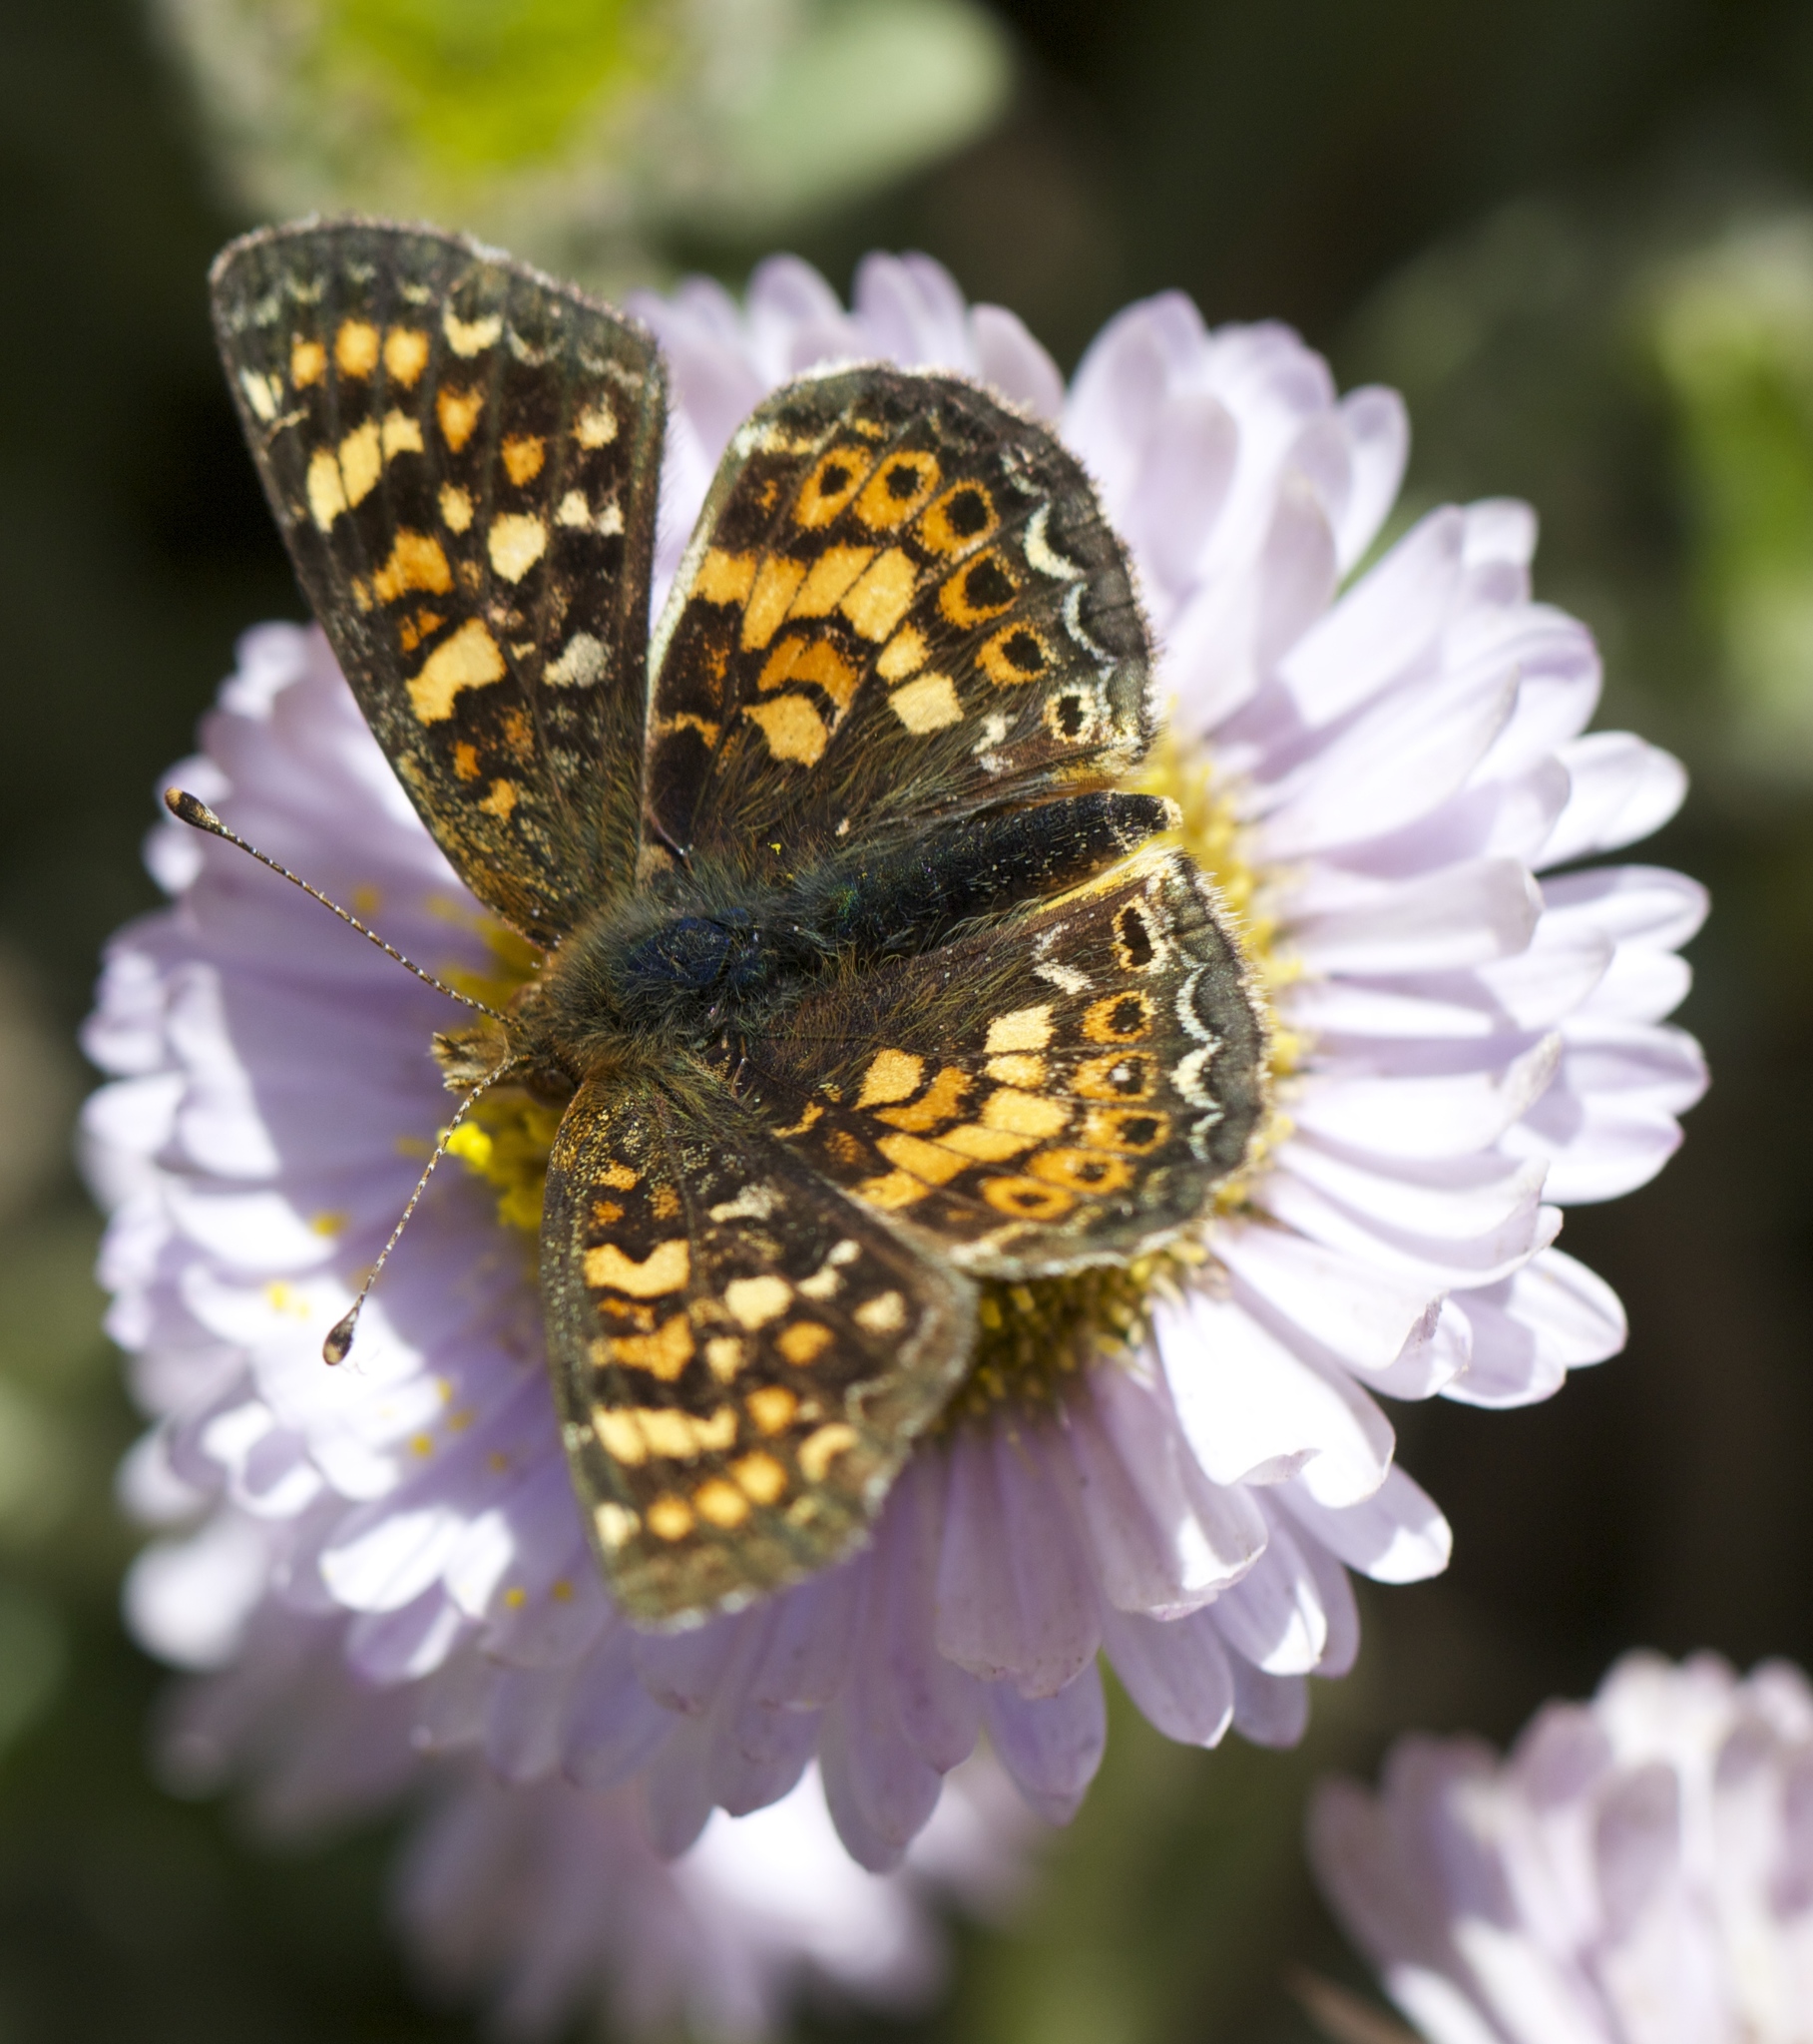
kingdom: Animalia
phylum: Arthropoda
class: Insecta
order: Lepidoptera
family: Nymphalidae
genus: Phyciodes
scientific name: Phyciodes tharos
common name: Pearl crescent
